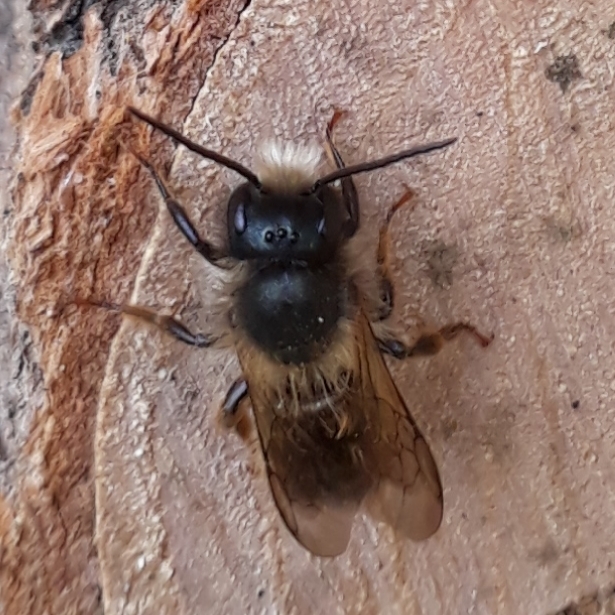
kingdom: Animalia
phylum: Arthropoda
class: Insecta
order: Hymenoptera
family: Megachilidae
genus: Osmia
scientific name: Osmia bicornis
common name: Red mason bee
